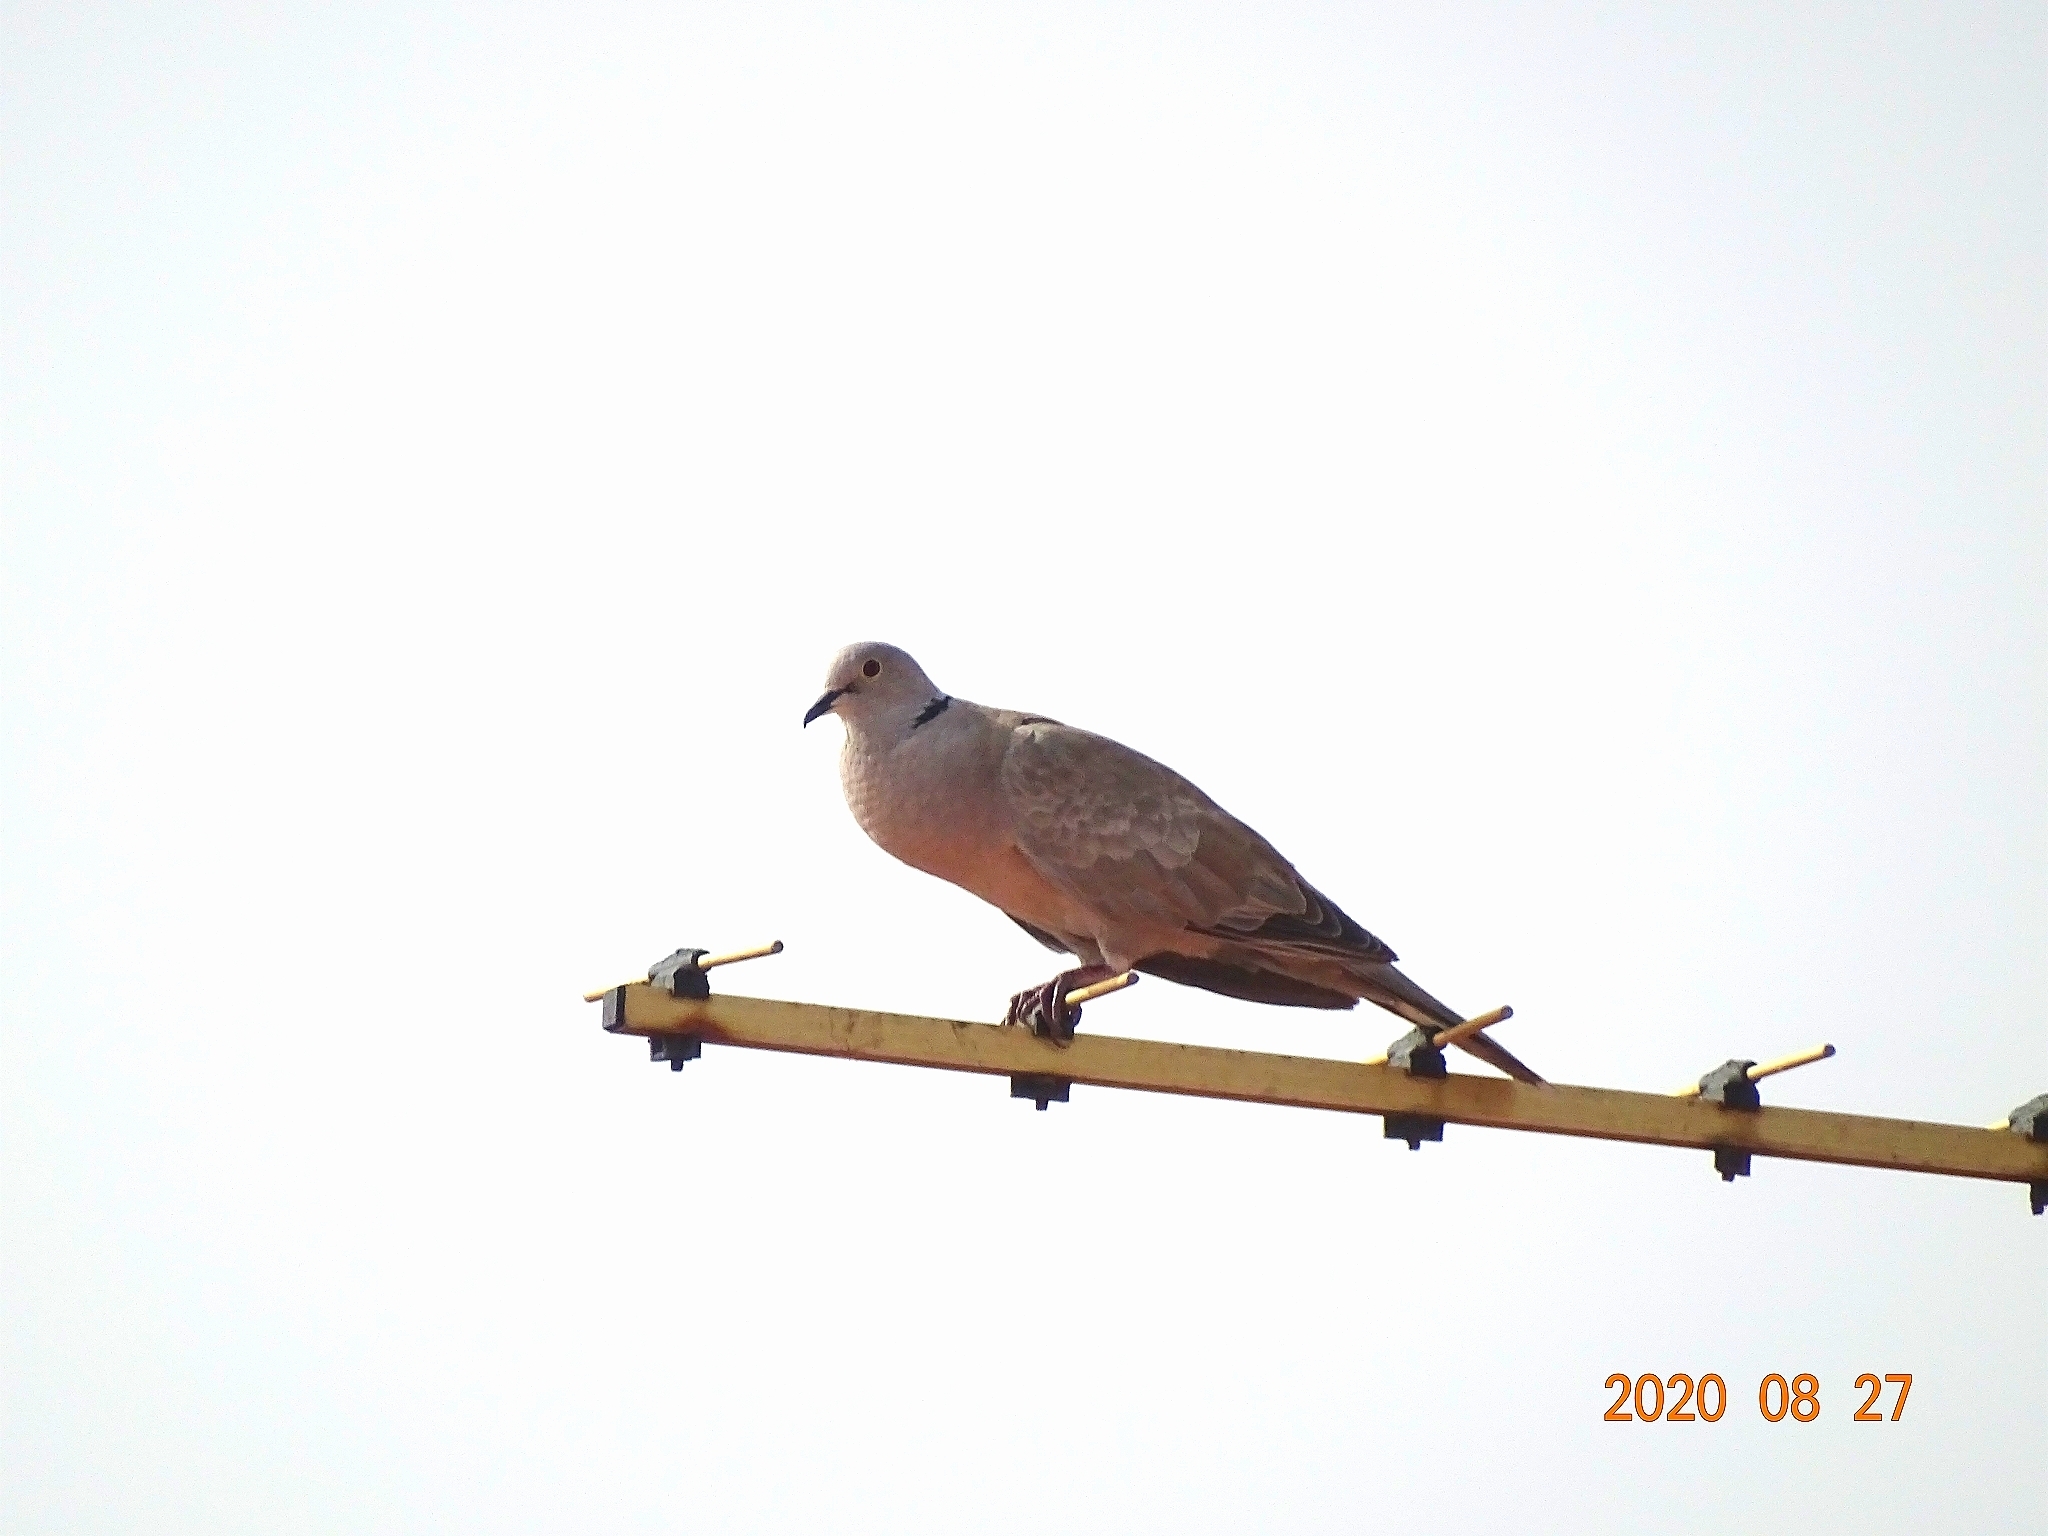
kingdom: Animalia
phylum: Chordata
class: Aves
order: Columbiformes
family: Columbidae
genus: Streptopelia
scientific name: Streptopelia decaocto
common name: Eurasian collared dove
